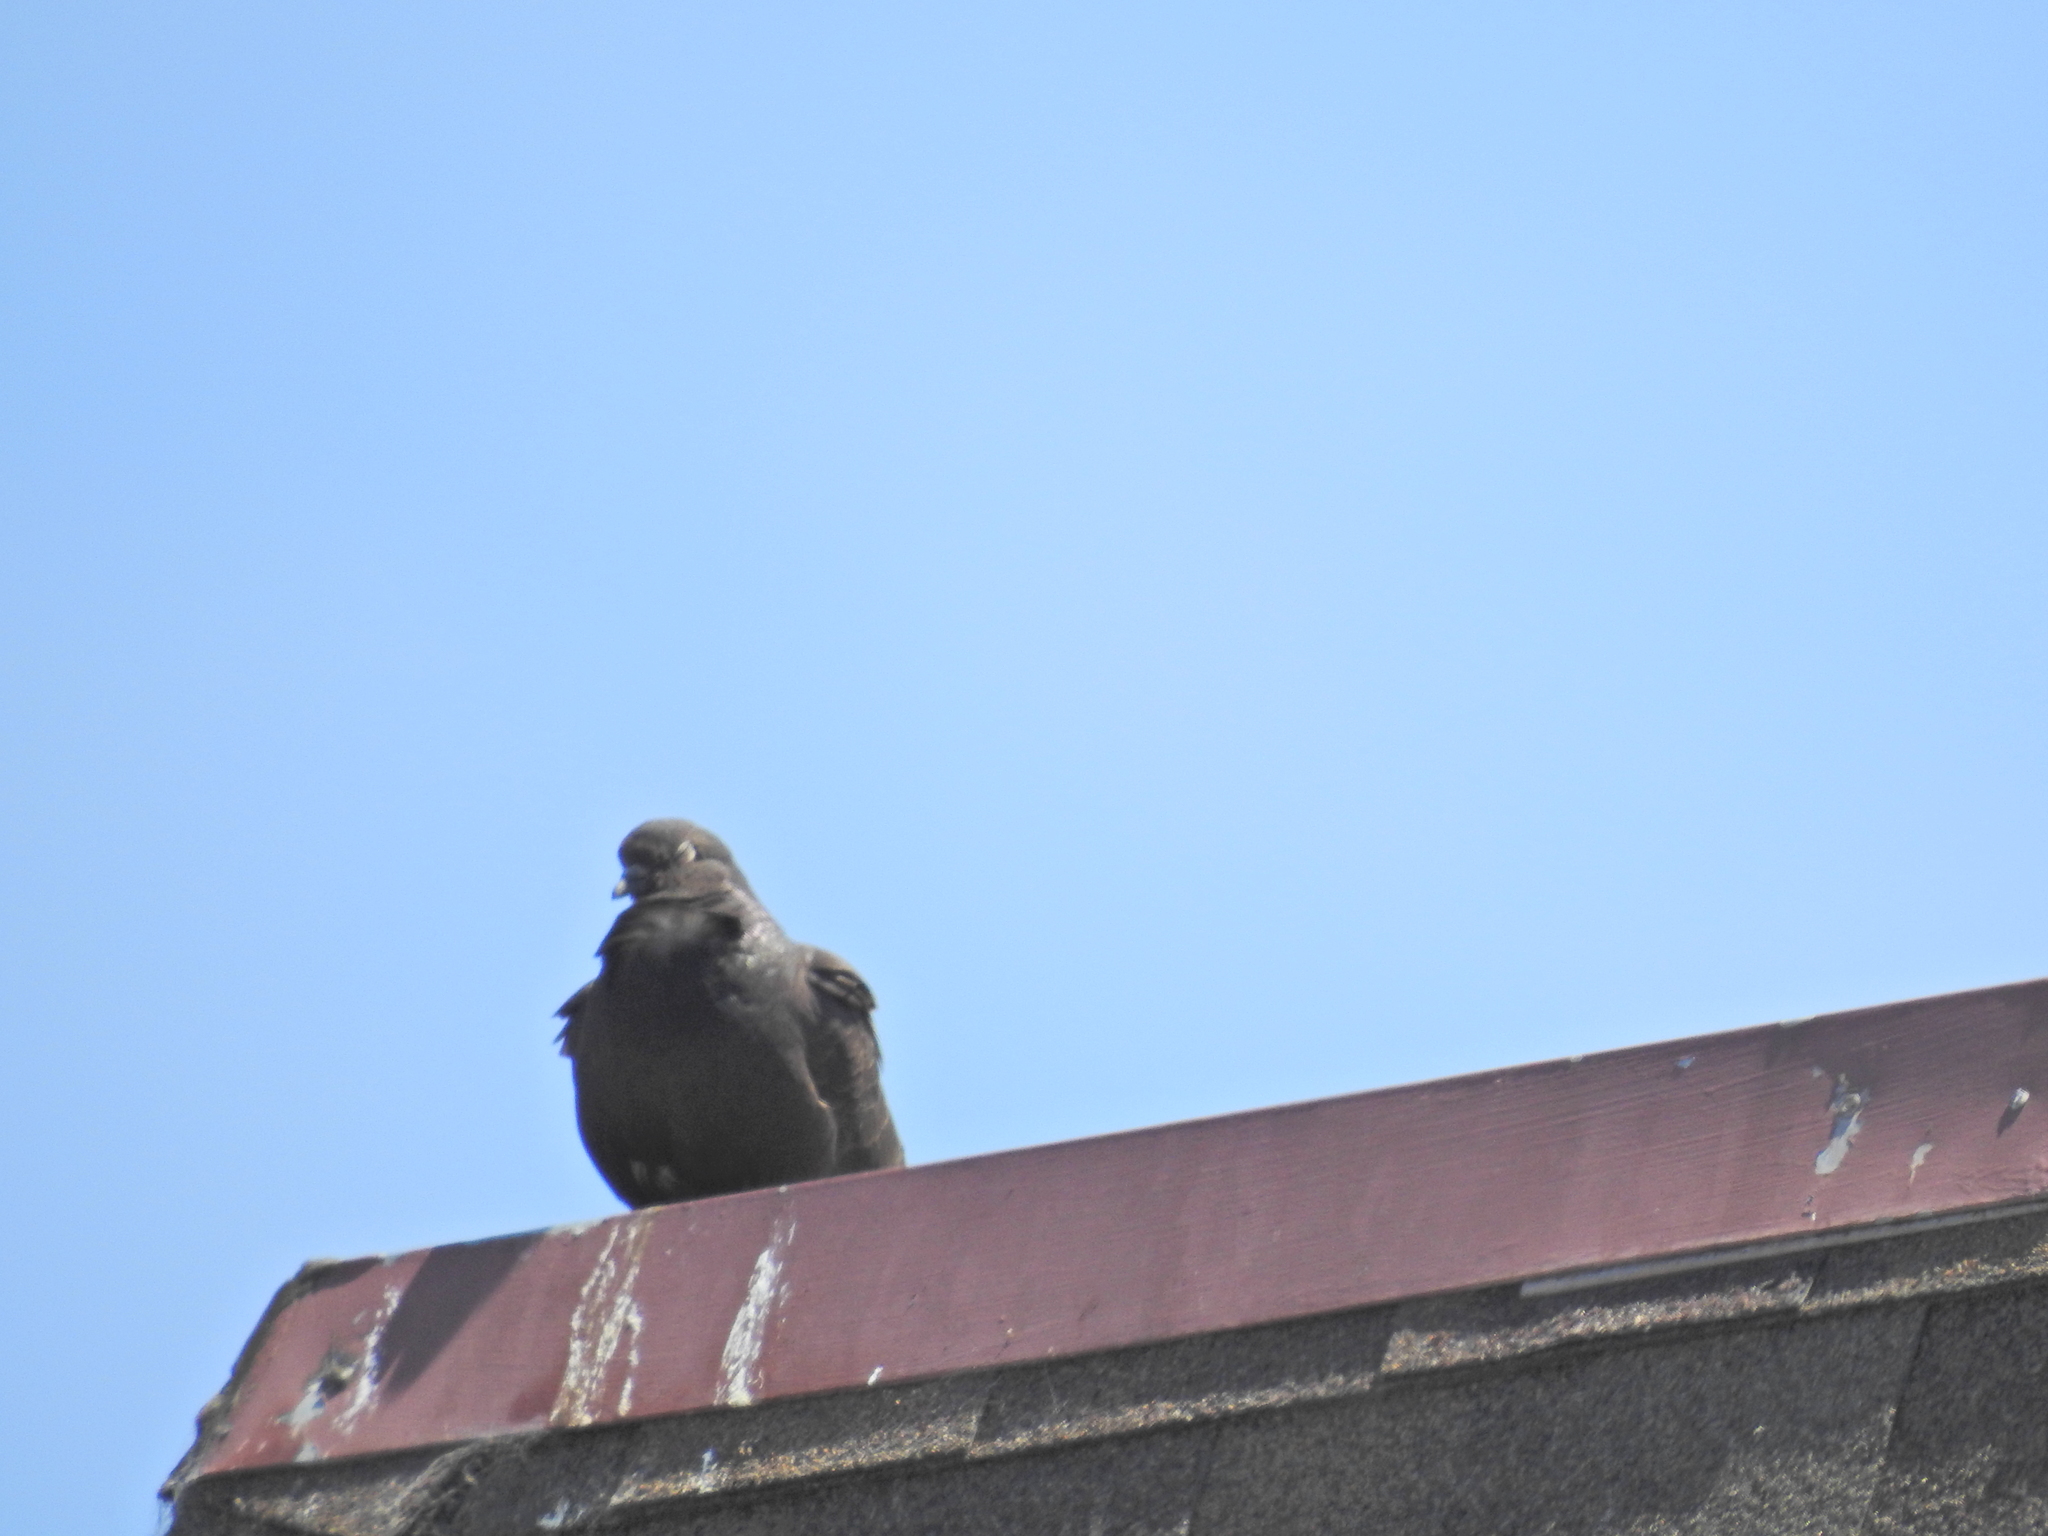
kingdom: Animalia
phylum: Chordata
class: Aves
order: Columbiformes
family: Columbidae
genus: Columba
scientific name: Columba livia
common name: Rock pigeon
